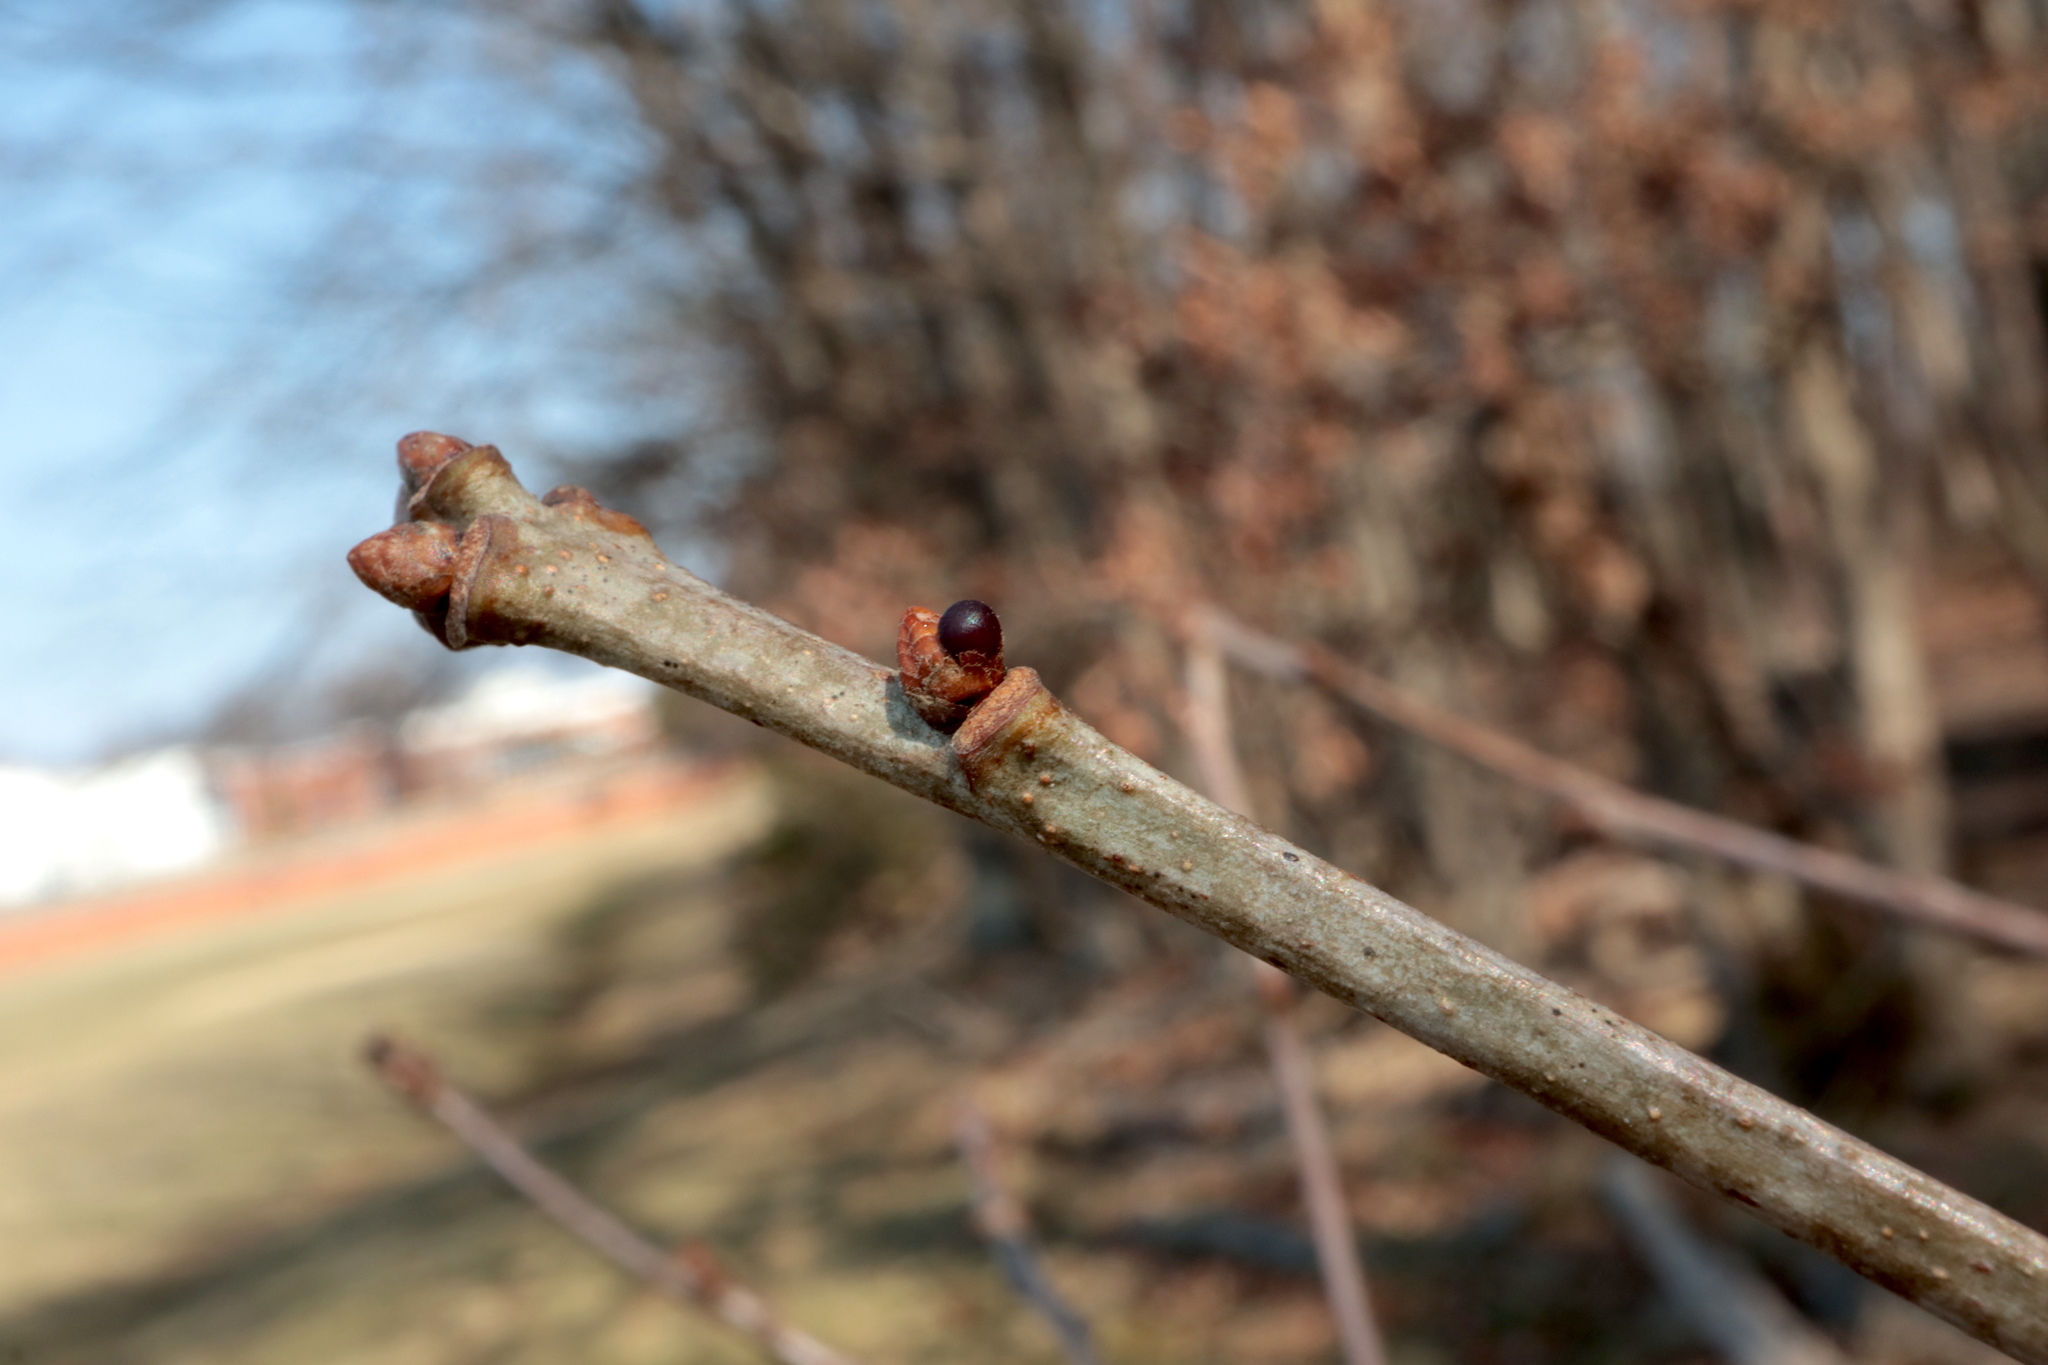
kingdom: Animalia
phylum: Arthropoda
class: Insecta
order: Hymenoptera
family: Cynipidae
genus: Neuroterus
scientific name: Neuroterus
